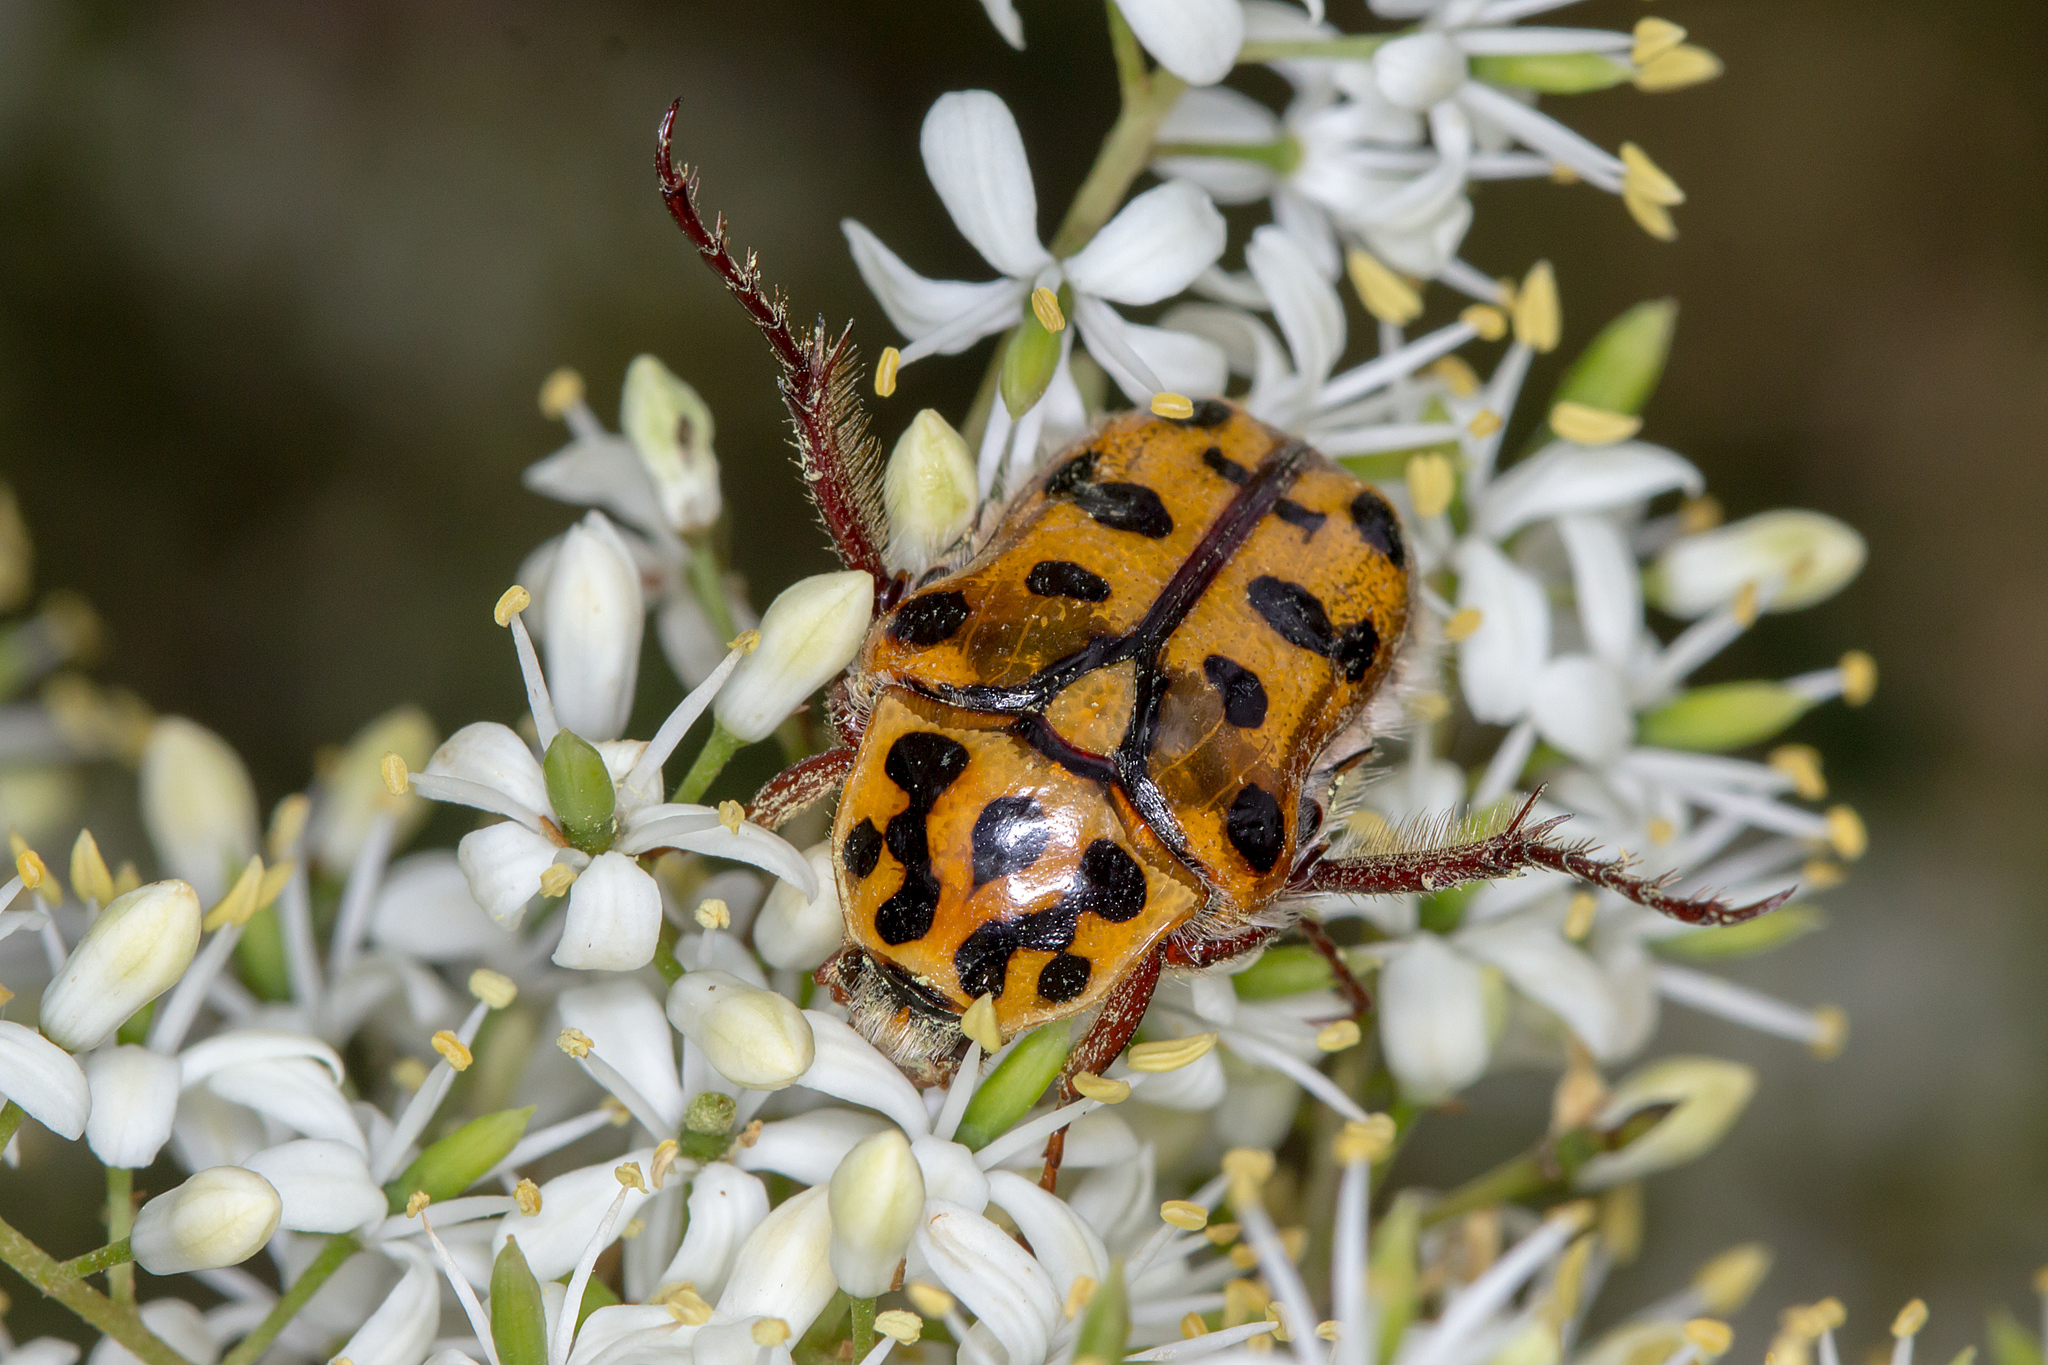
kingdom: Animalia
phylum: Arthropoda
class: Insecta
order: Coleoptera
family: Scarabaeidae
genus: Neorrhina
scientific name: Neorrhina punctatum
